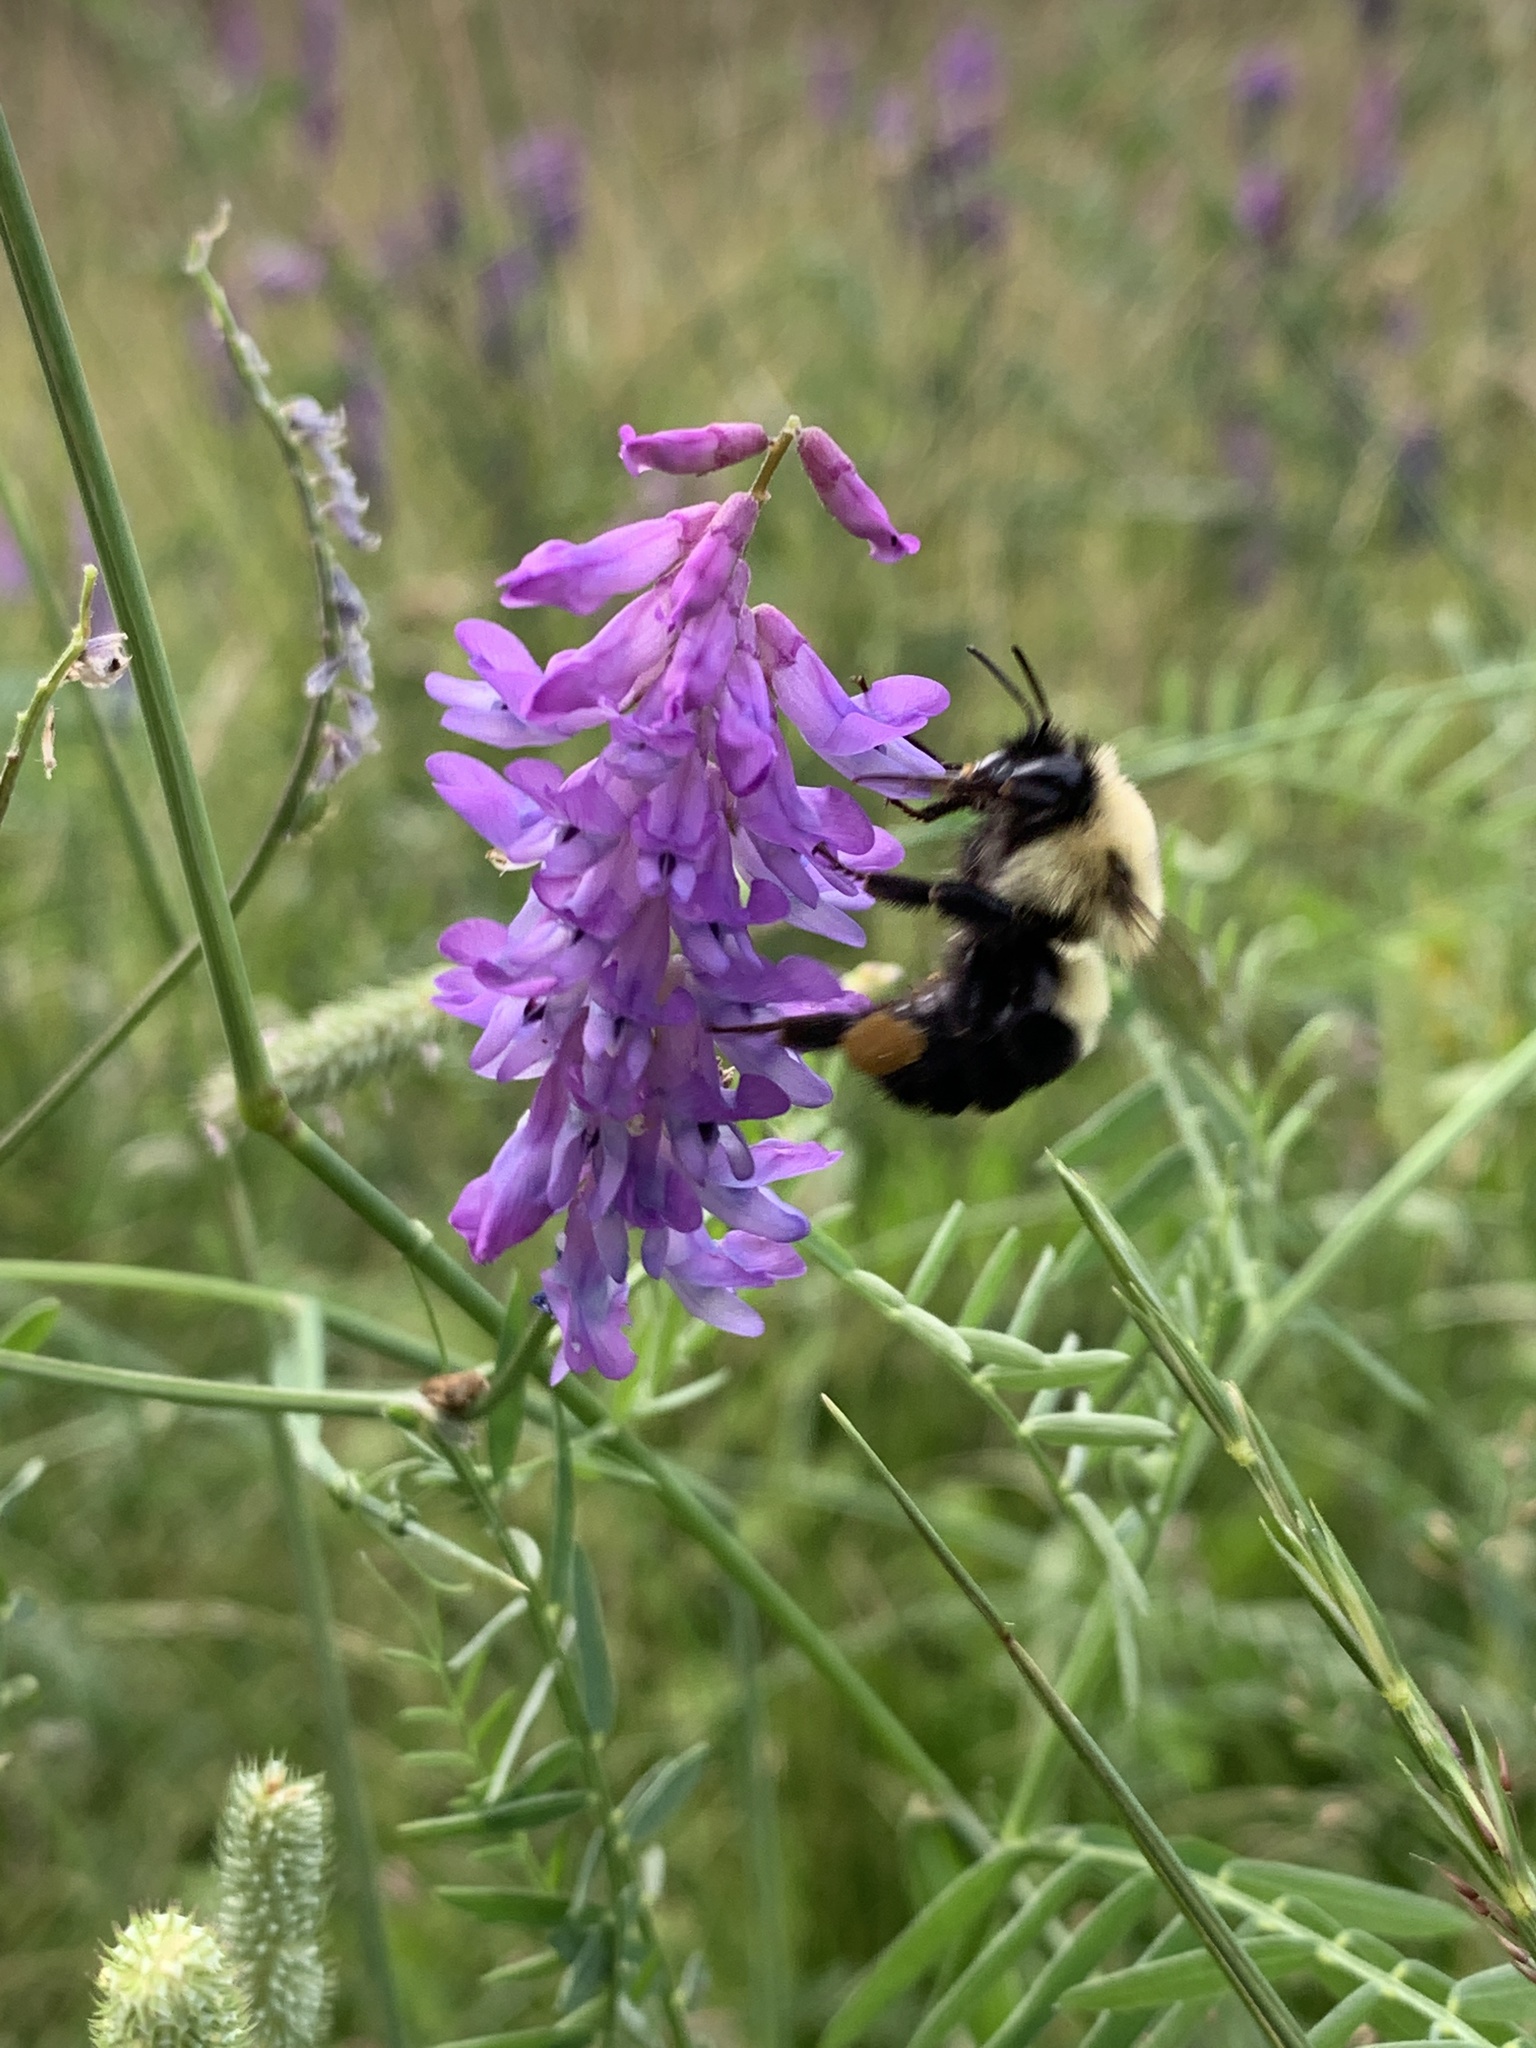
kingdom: Animalia
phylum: Arthropoda
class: Insecta
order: Hymenoptera
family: Apidae
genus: Bombus
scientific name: Bombus bimaculatus
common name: Two-spotted bumble bee
